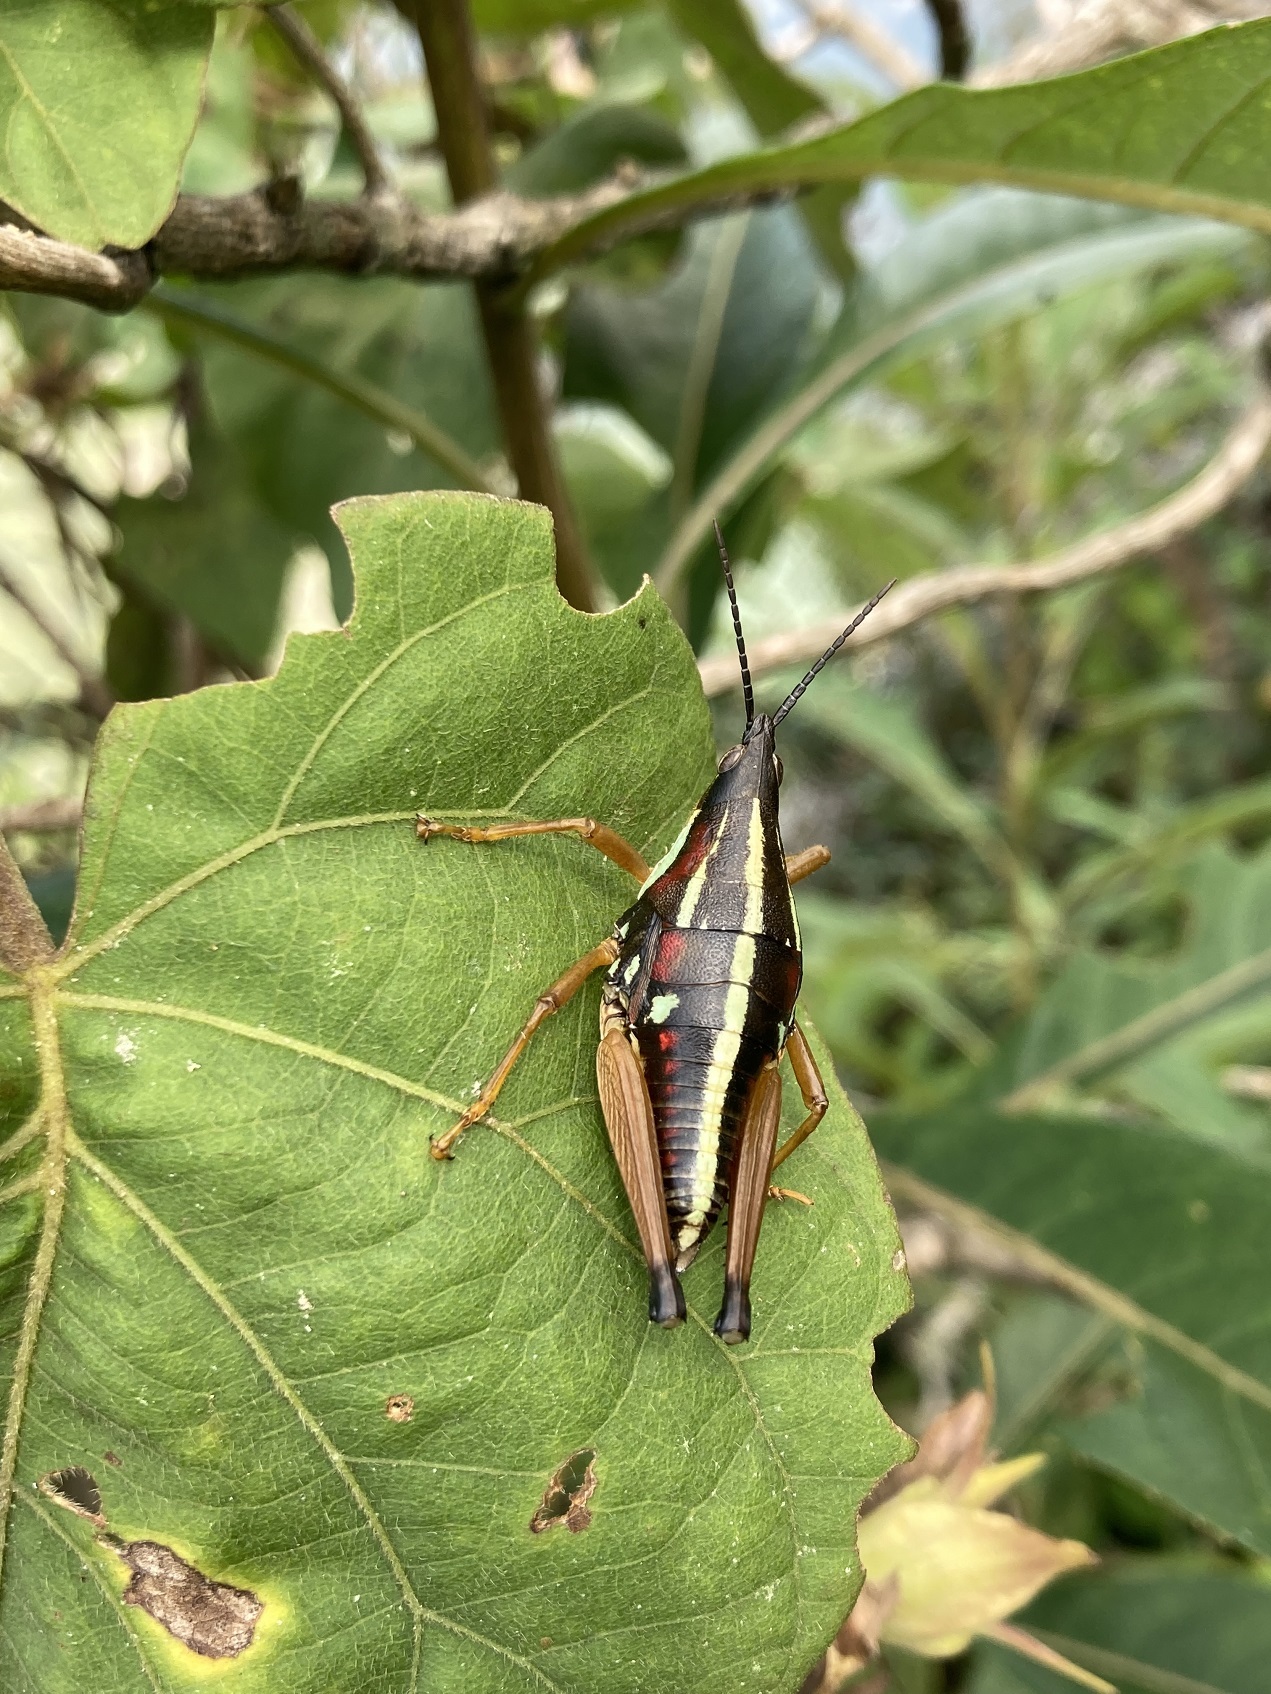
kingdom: Animalia
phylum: Arthropoda
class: Insecta
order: Orthoptera
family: Pyrgomorphidae
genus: Sphenarium
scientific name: Sphenarium histrio
